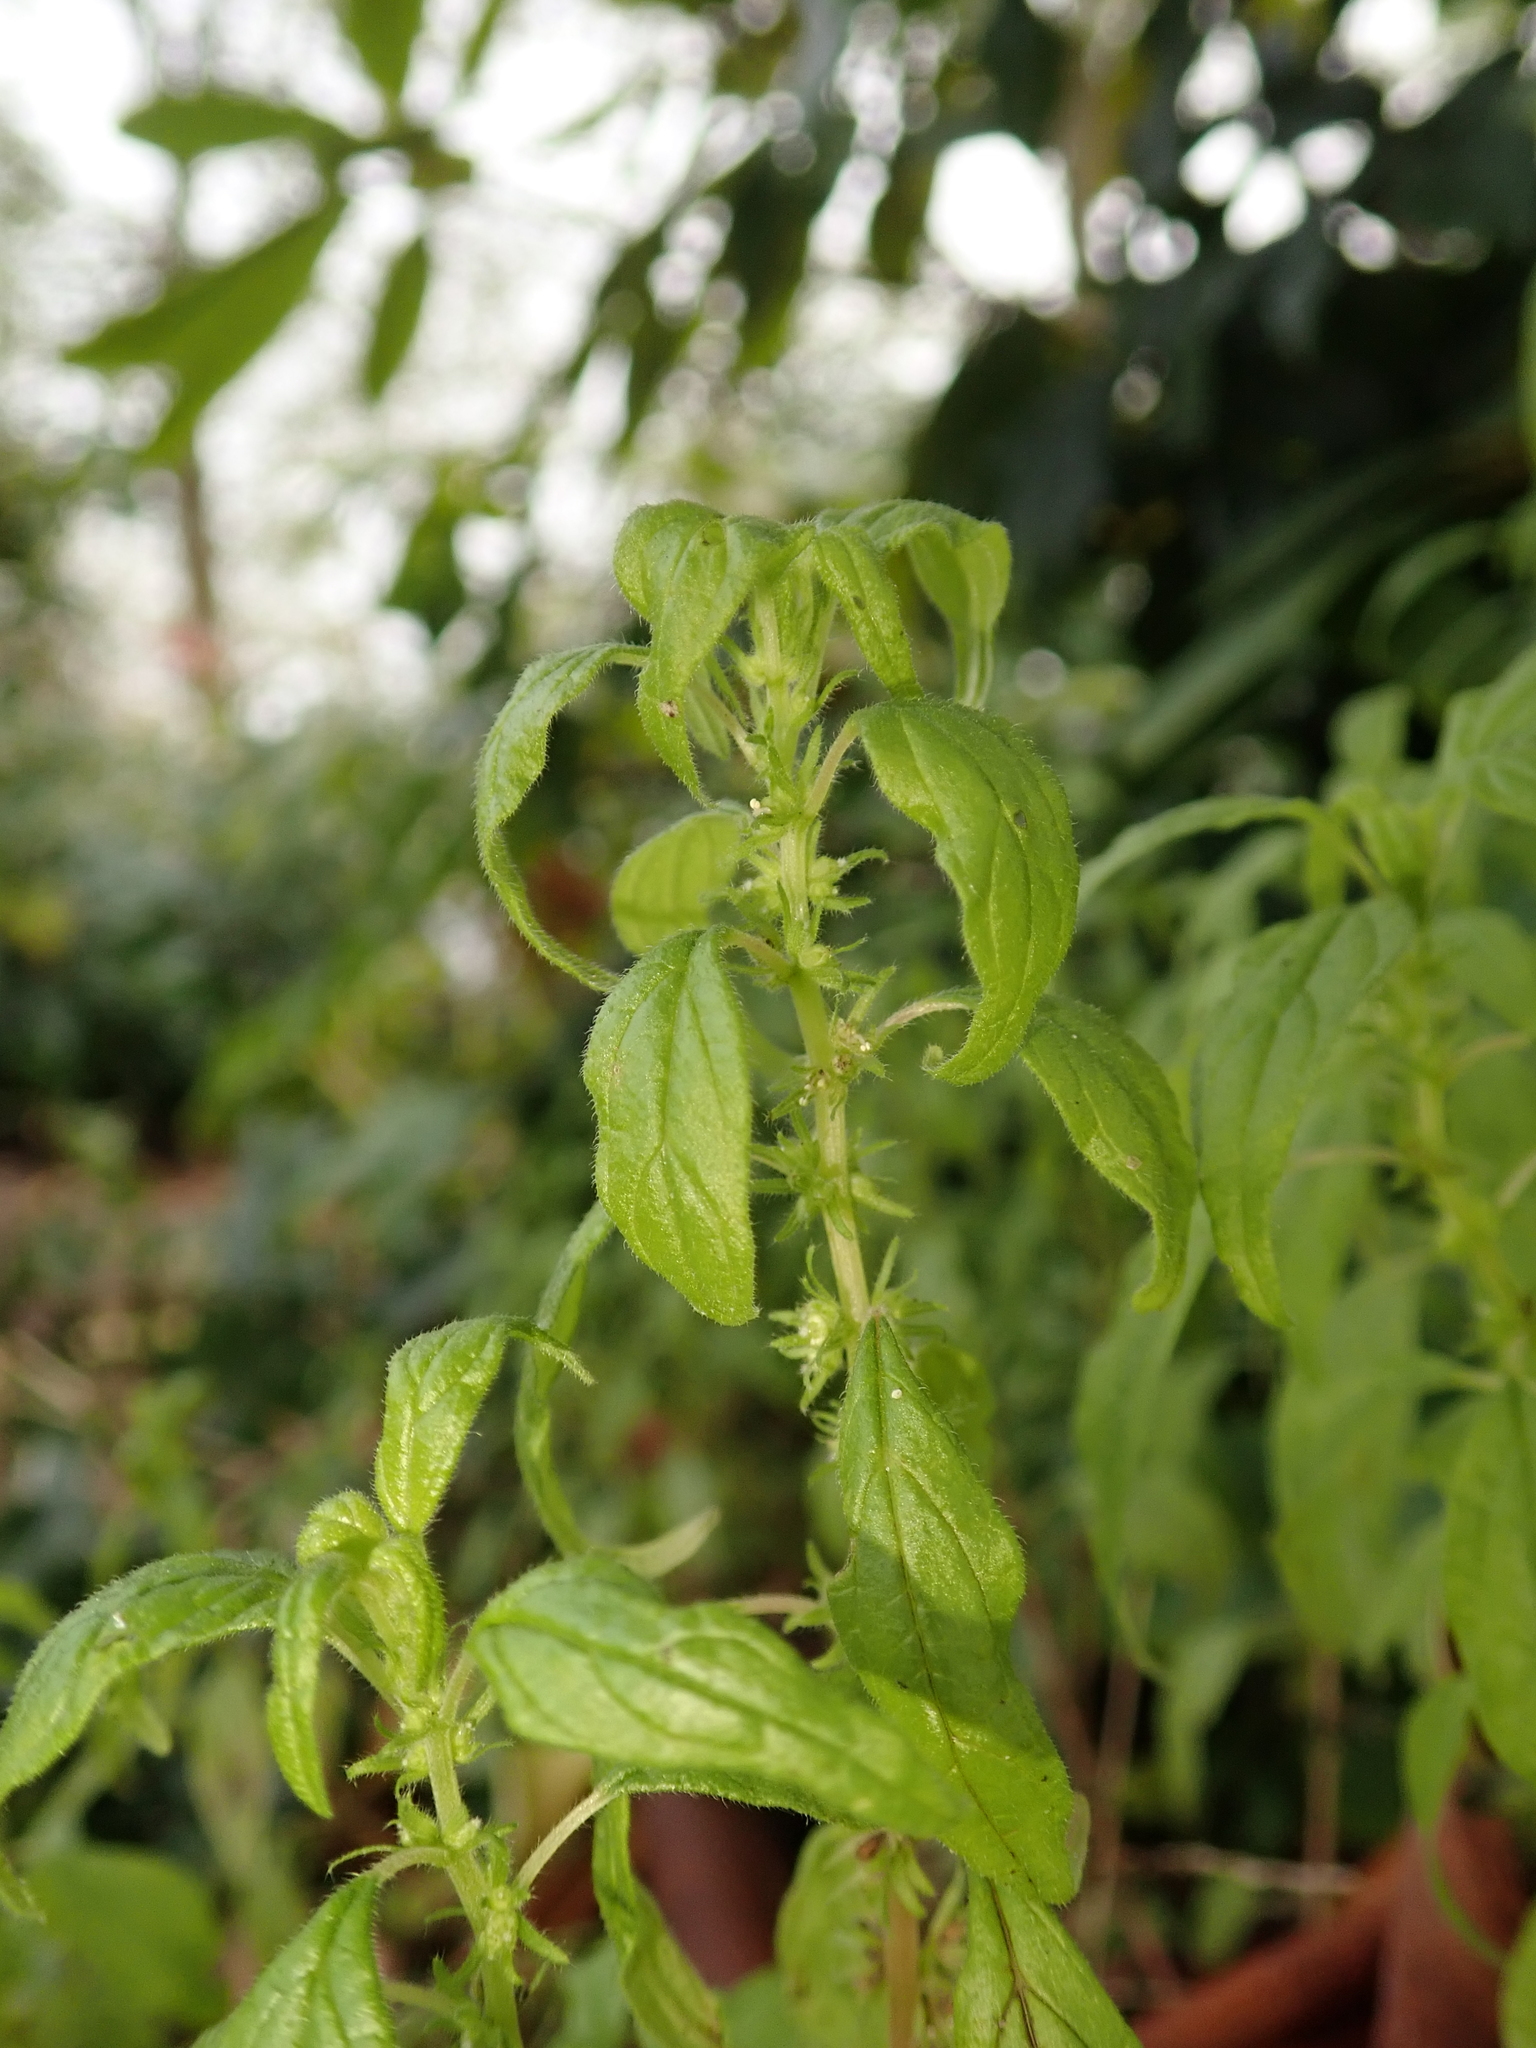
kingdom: Plantae
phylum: Tracheophyta
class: Magnoliopsida
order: Rosales
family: Urticaceae
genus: Parietaria
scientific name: Parietaria pensylvanica
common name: Pennsylvania pellitory
